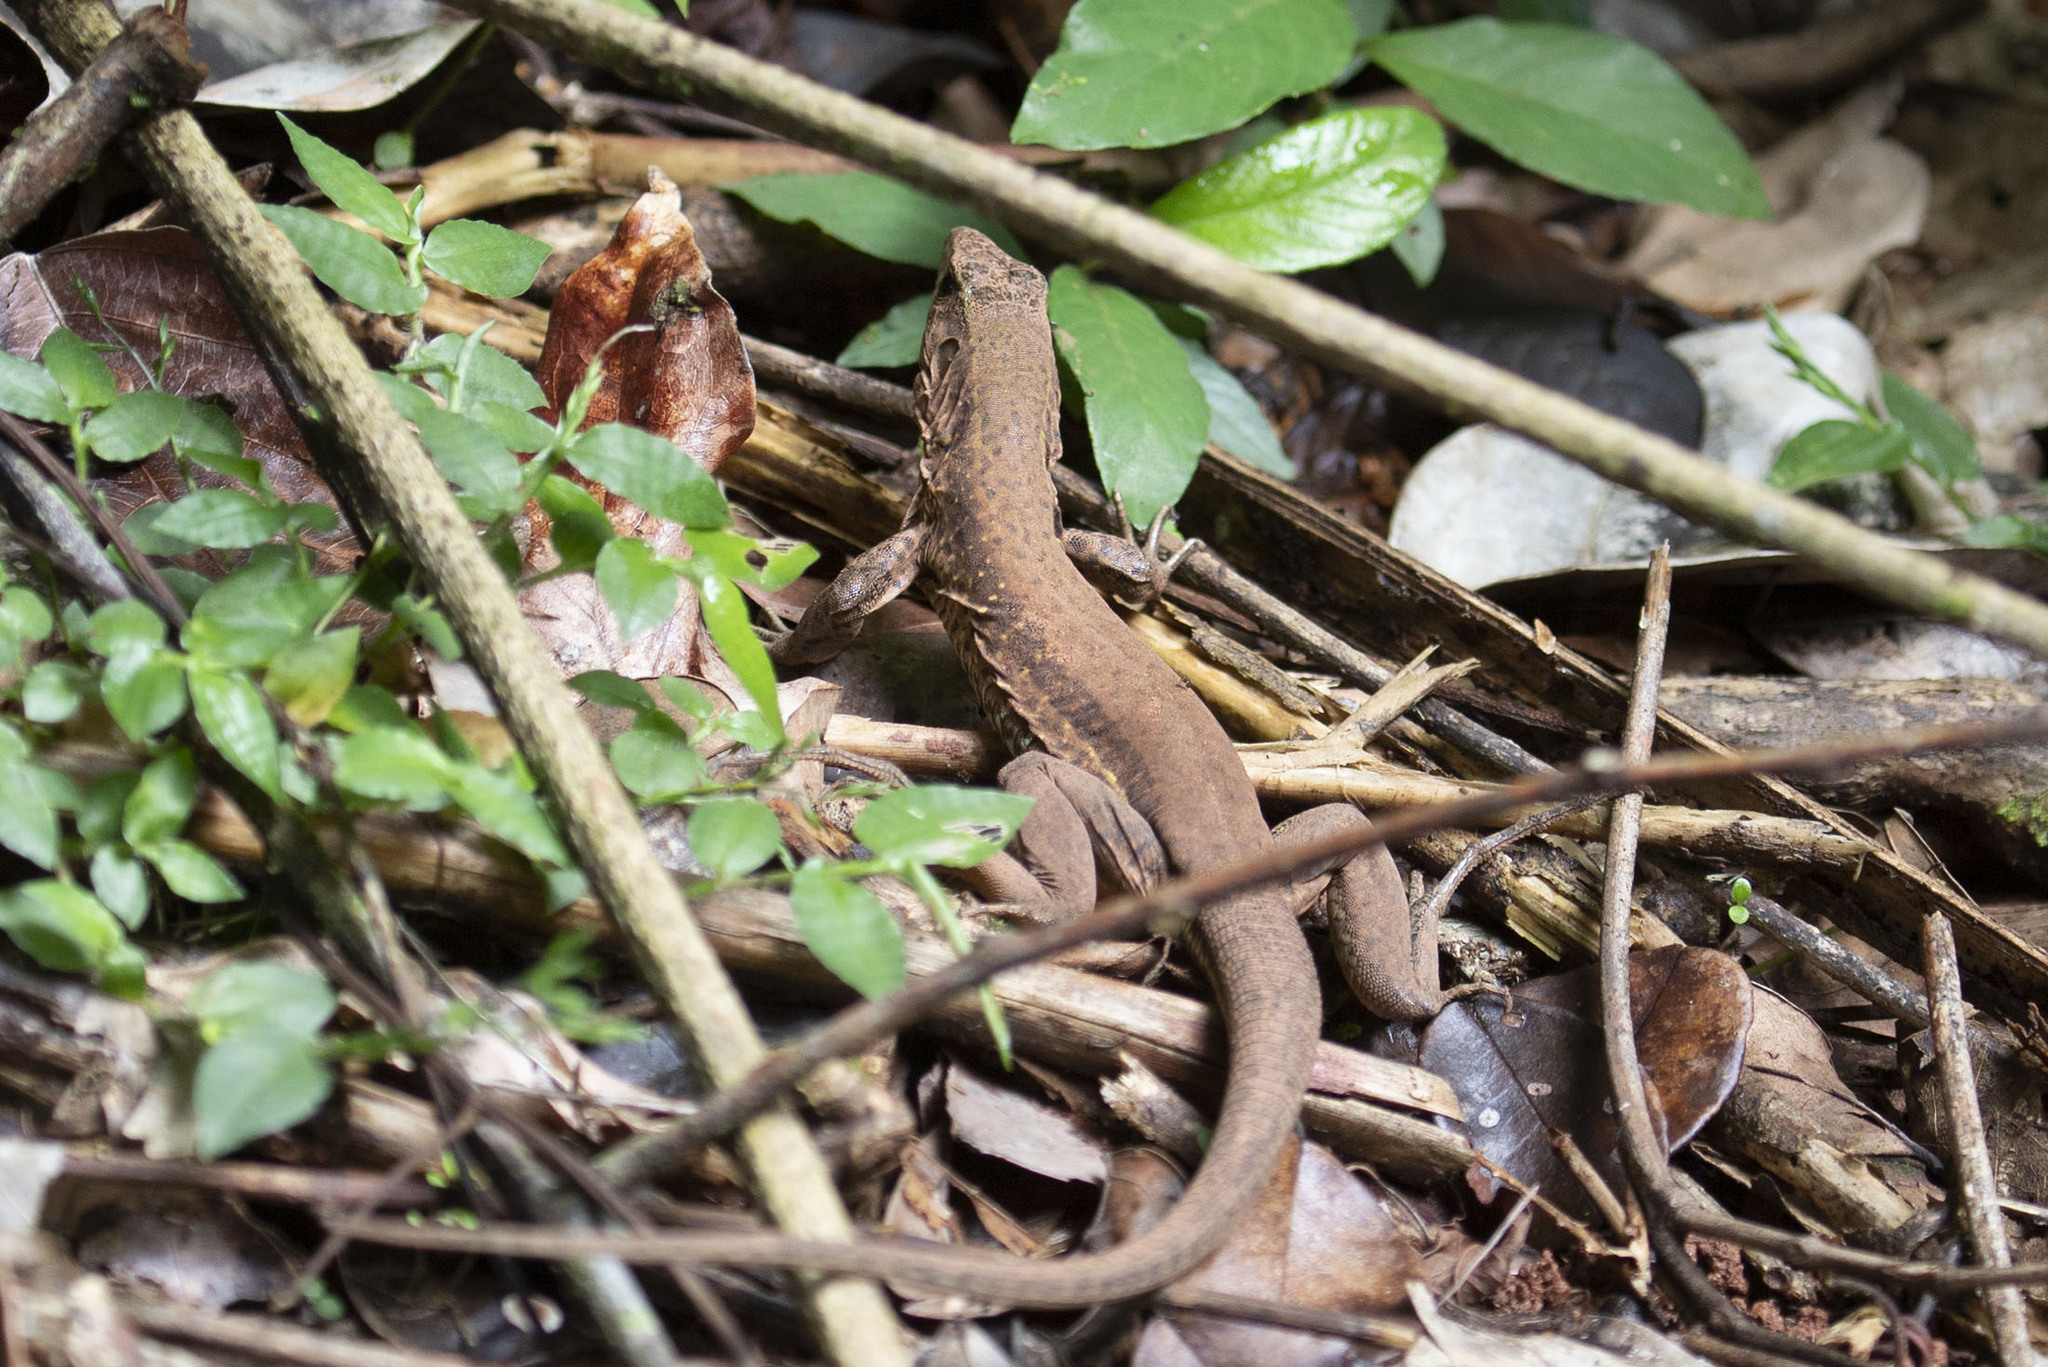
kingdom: Animalia
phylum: Chordata
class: Squamata
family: Teiidae
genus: Ameiva
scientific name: Ameiva ameiva
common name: Giant ameiva
